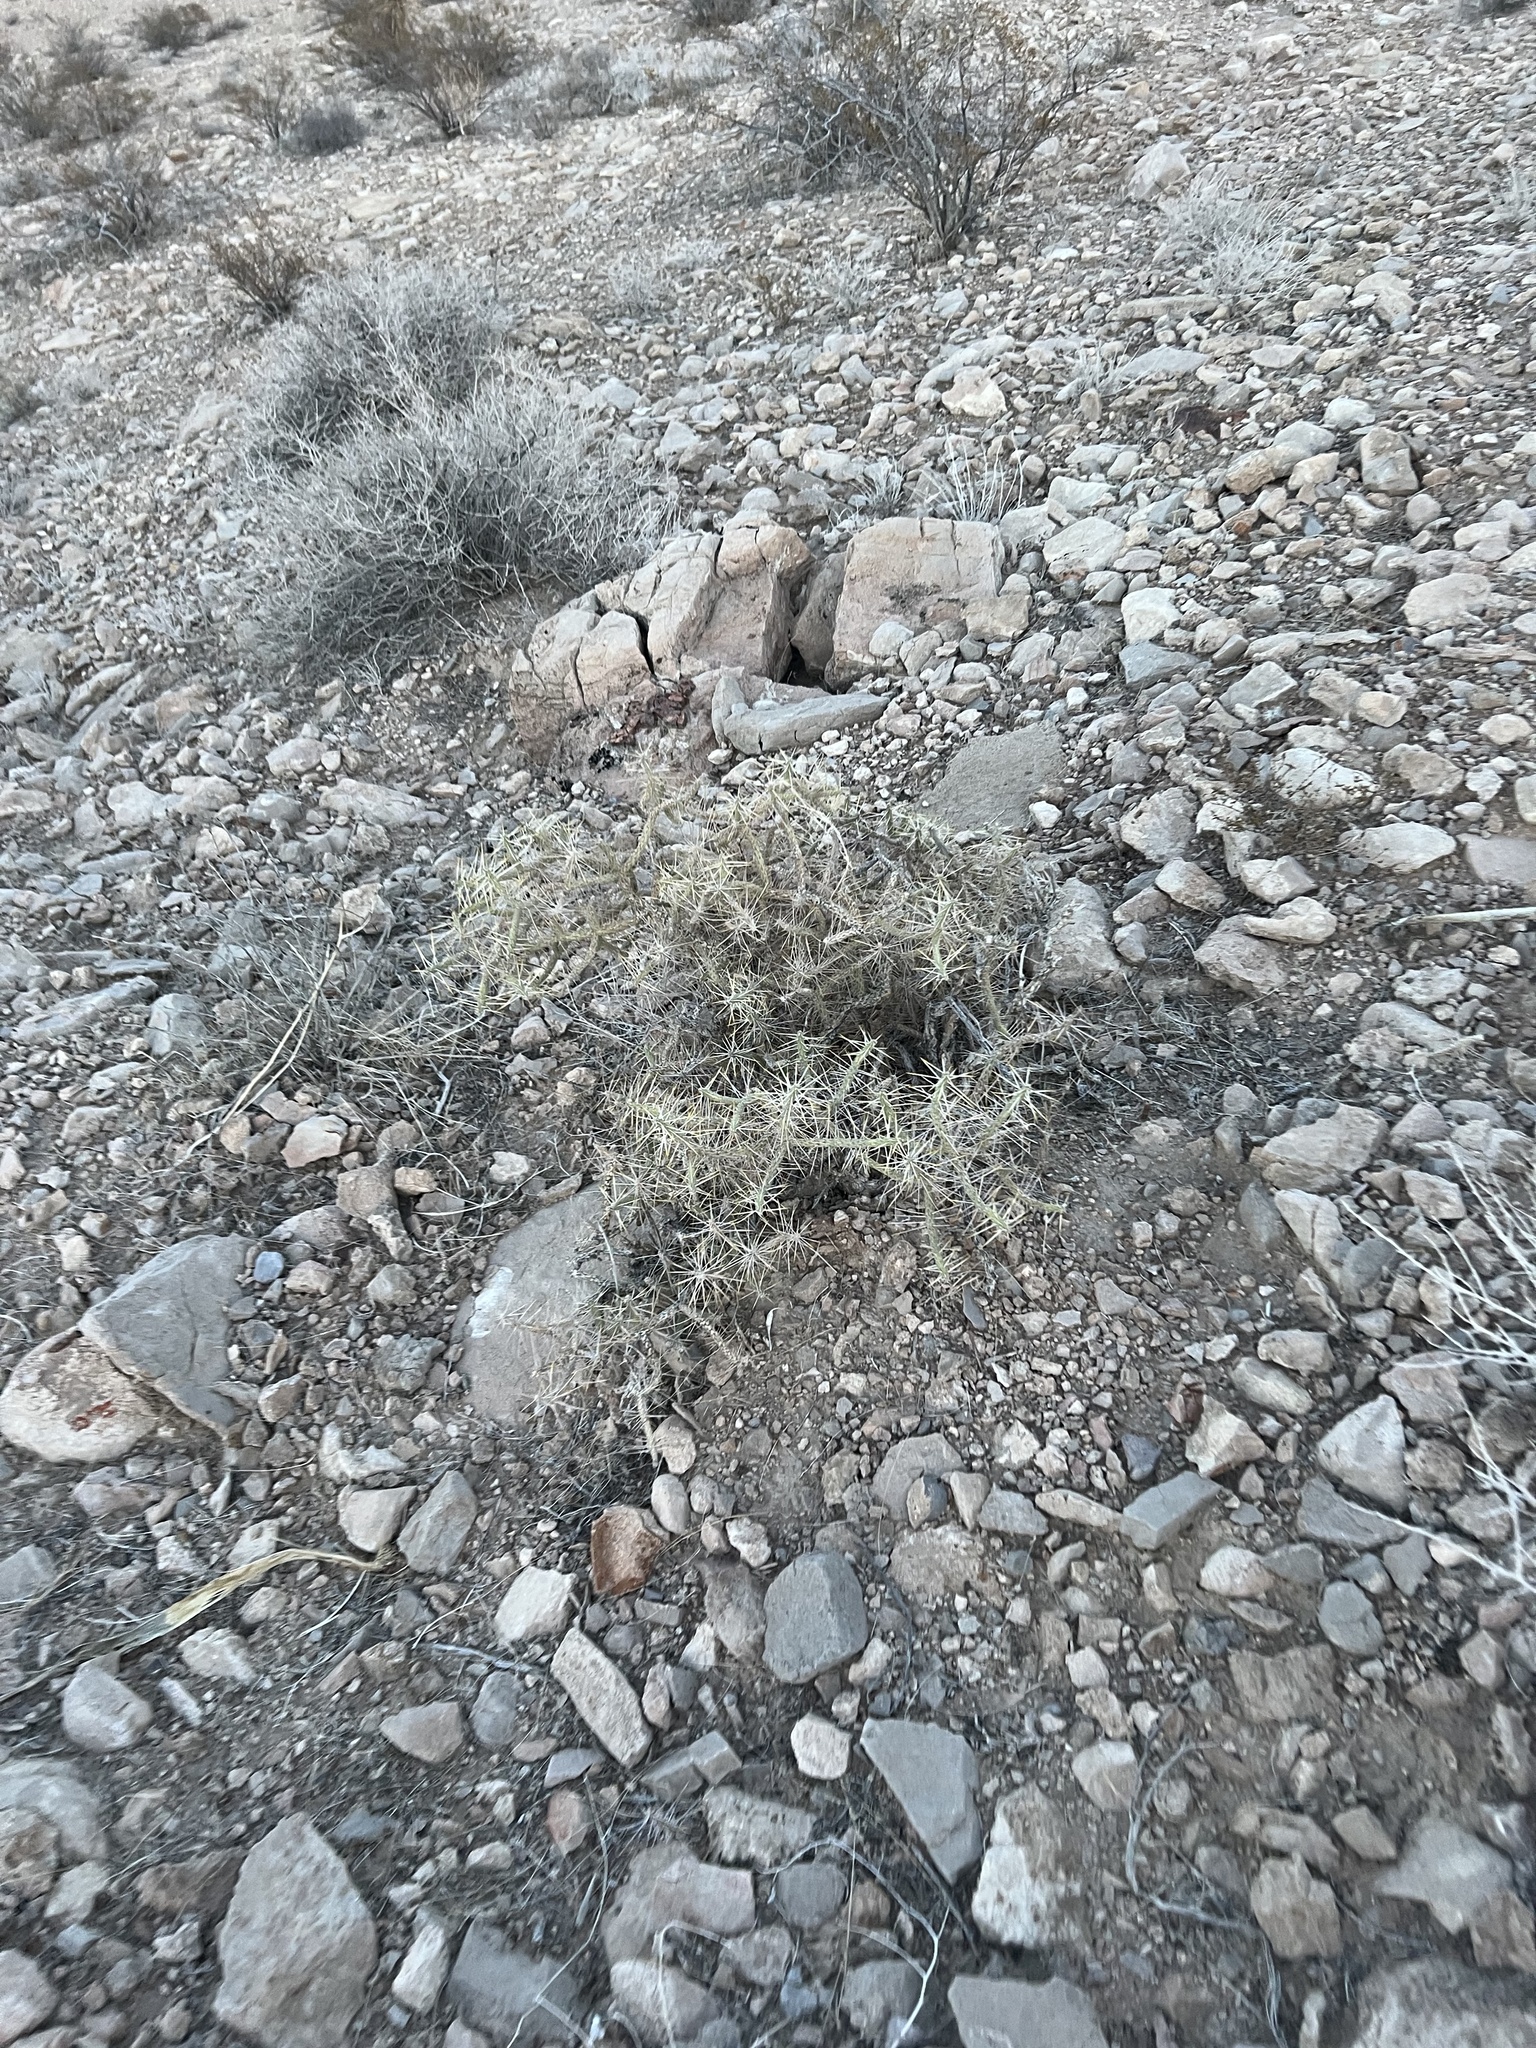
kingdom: Plantae
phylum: Tracheophyta
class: Magnoliopsida
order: Caryophyllales
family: Cactaceae
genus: Cylindropuntia
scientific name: Cylindropuntia ramosissima
